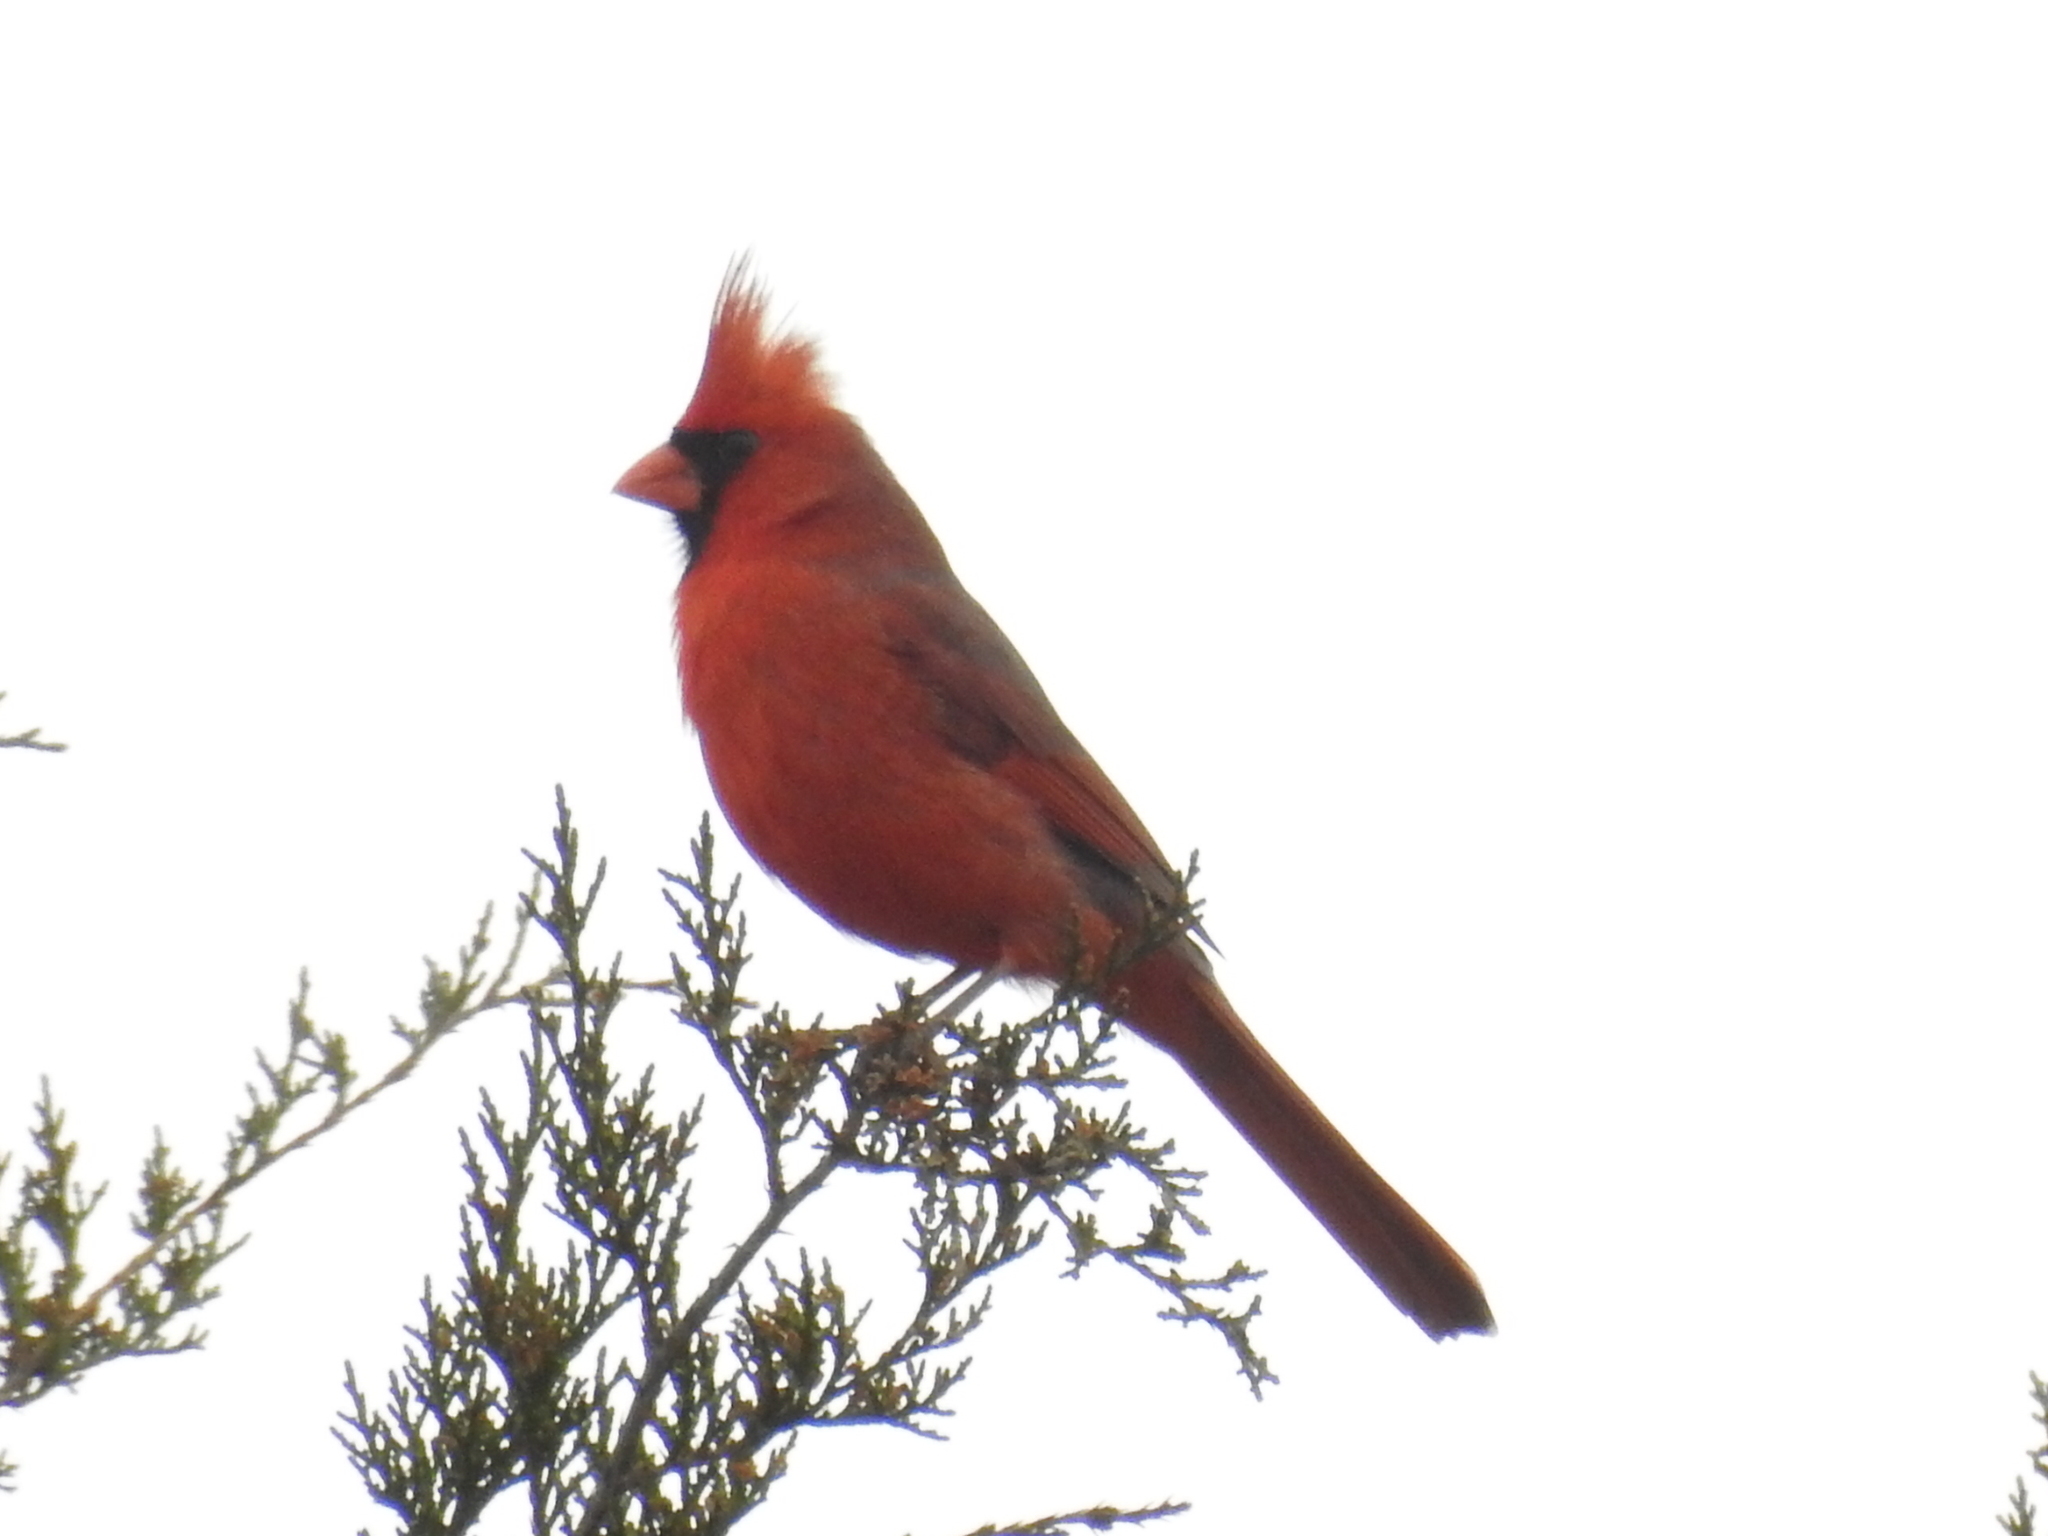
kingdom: Animalia
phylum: Chordata
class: Aves
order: Passeriformes
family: Cardinalidae
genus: Cardinalis
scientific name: Cardinalis cardinalis
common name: Northern cardinal
